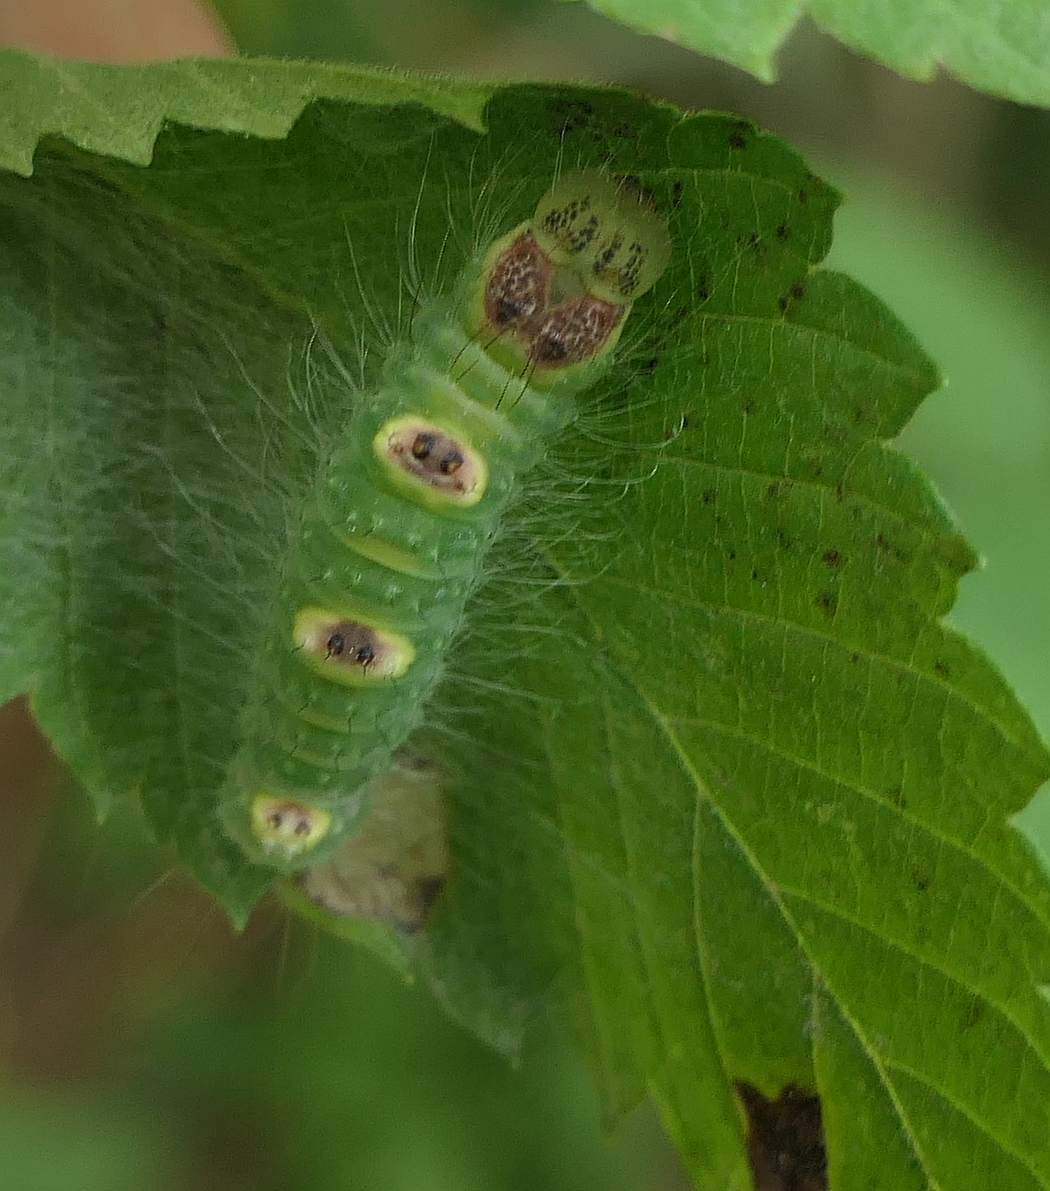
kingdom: Animalia
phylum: Arthropoda
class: Insecta
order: Lepidoptera
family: Noctuidae
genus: Acronicta
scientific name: Acronicta morula
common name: Ochre dagger
